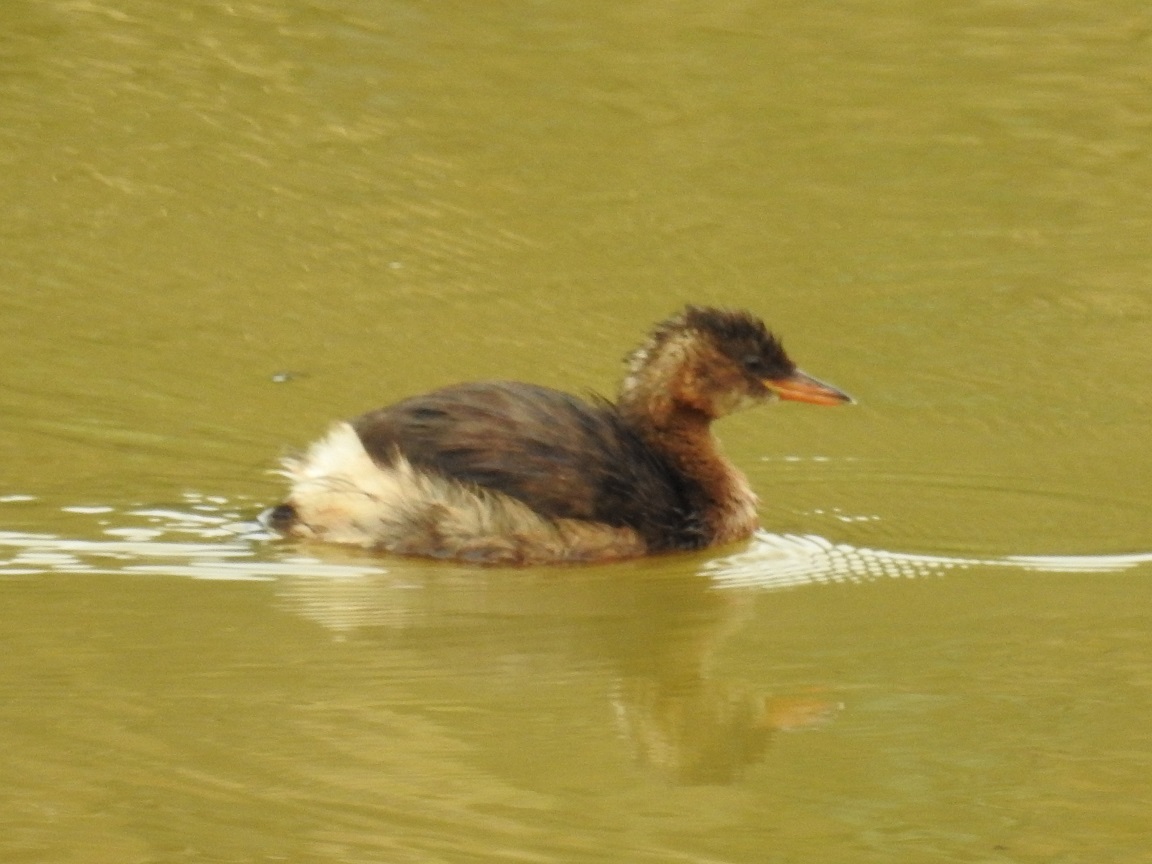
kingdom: Animalia
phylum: Chordata
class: Aves
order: Podicipediformes
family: Podicipedidae
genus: Tachybaptus
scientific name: Tachybaptus ruficollis
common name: Little grebe
